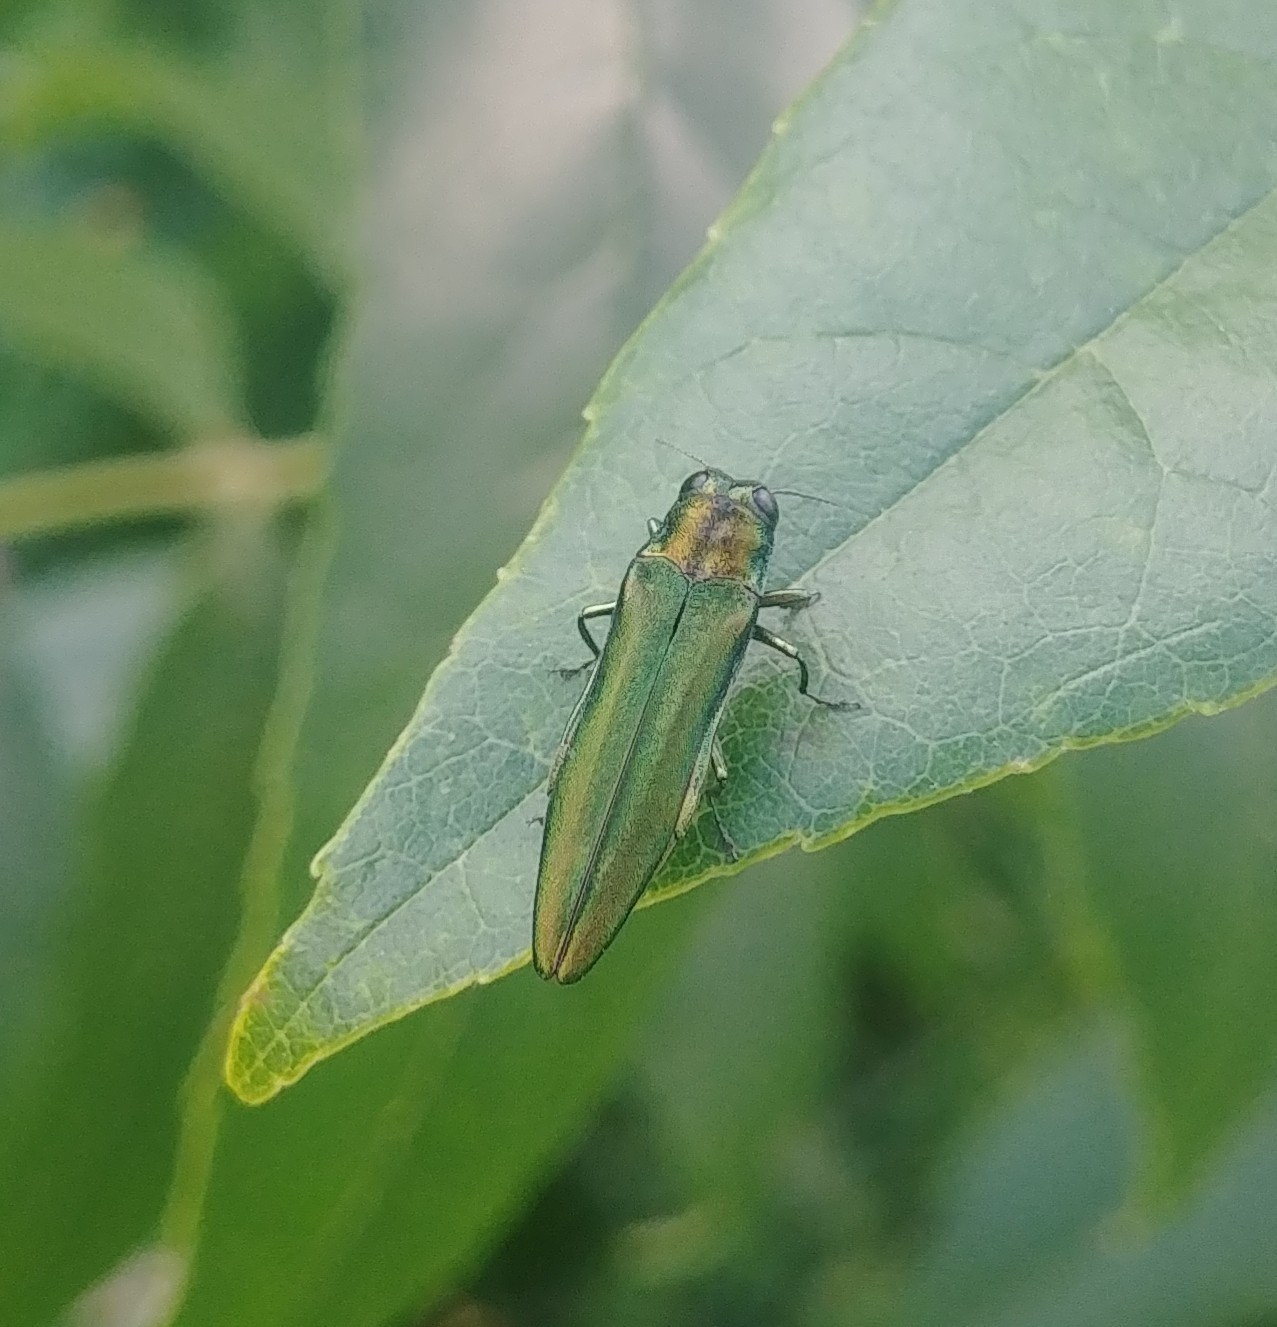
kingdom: Animalia
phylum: Arthropoda
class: Insecta
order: Coleoptera
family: Buprestidae
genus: Agrilus
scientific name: Agrilus planipennis
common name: Emerald ash borer
